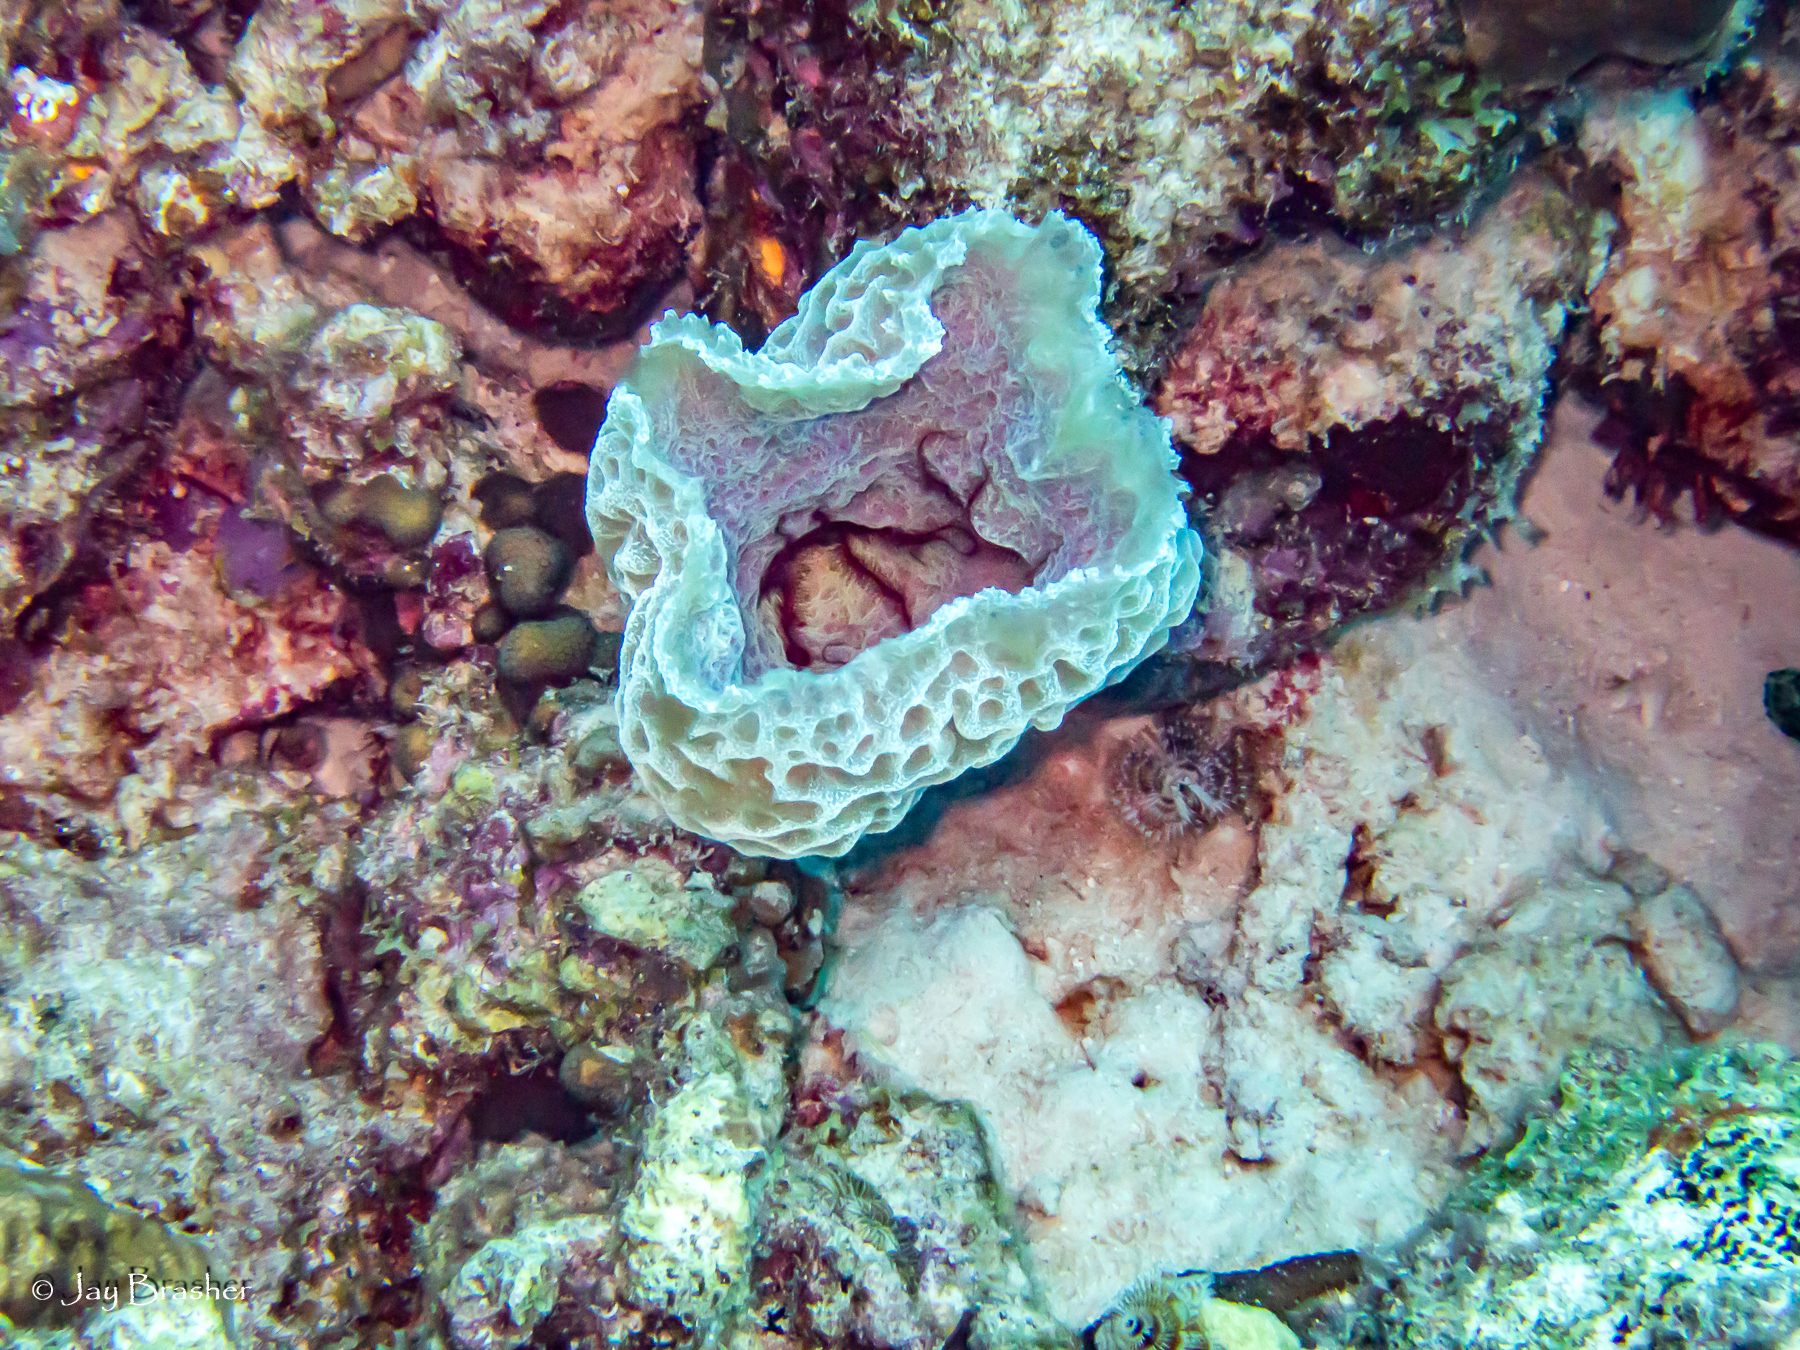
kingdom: Animalia
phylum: Porifera
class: Demospongiae
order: Haplosclerida
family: Callyspongiidae
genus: Callyspongia
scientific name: Callyspongia plicifera
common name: Azure vase sponge
